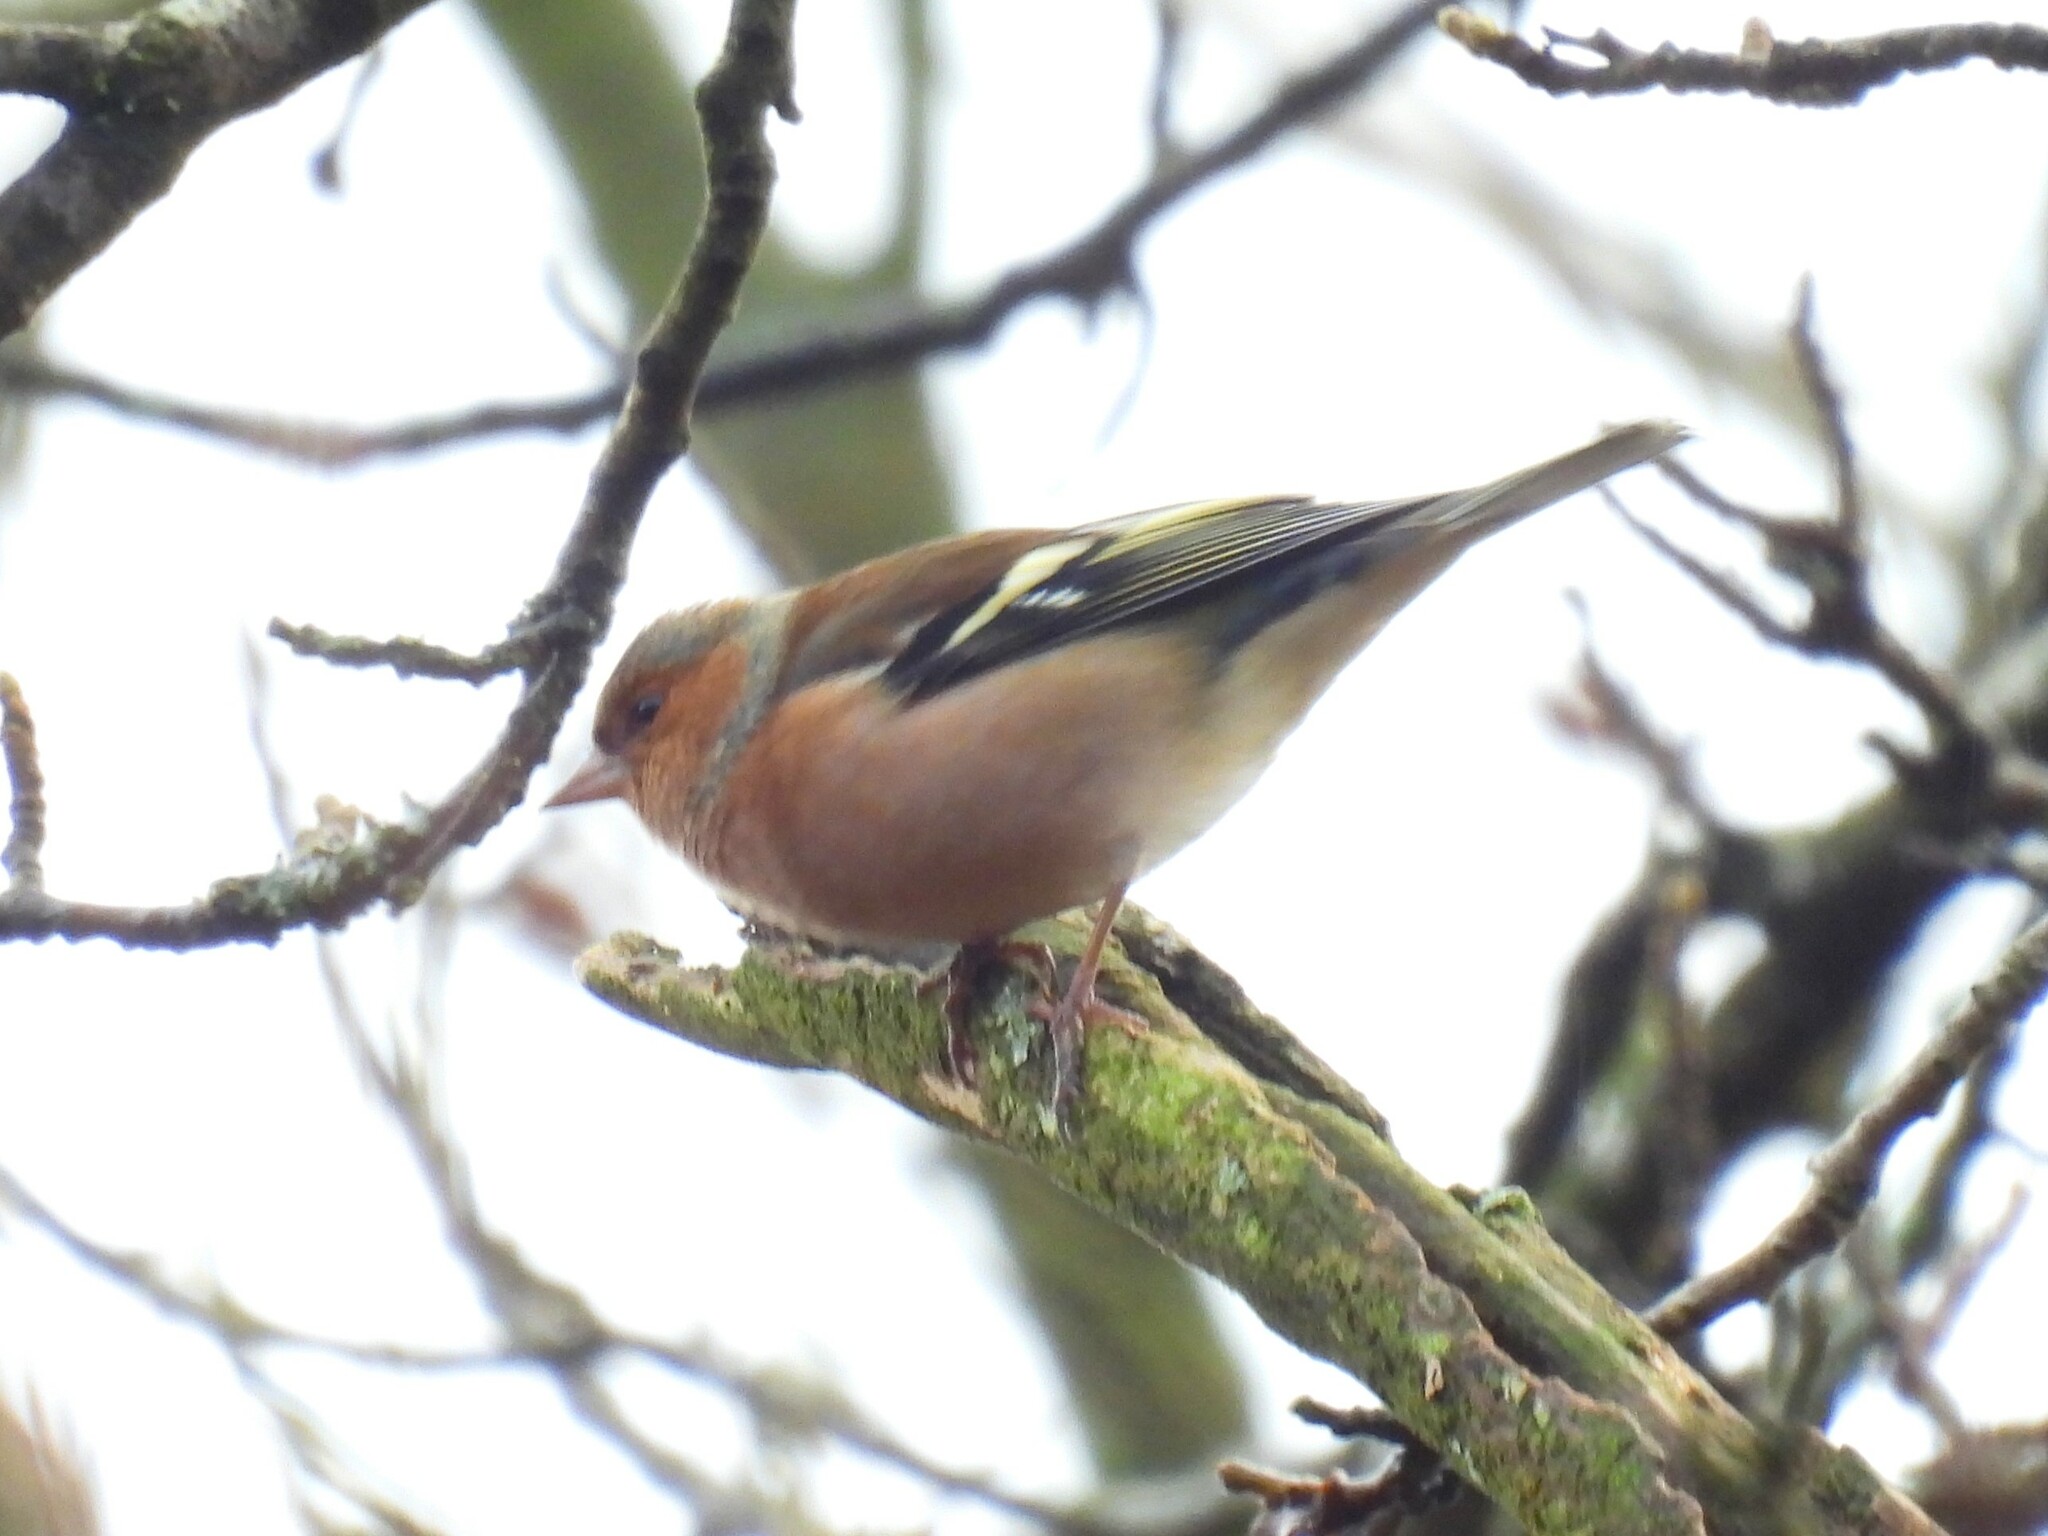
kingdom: Animalia
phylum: Chordata
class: Aves
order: Passeriformes
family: Fringillidae
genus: Fringilla
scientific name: Fringilla coelebs
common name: Common chaffinch
